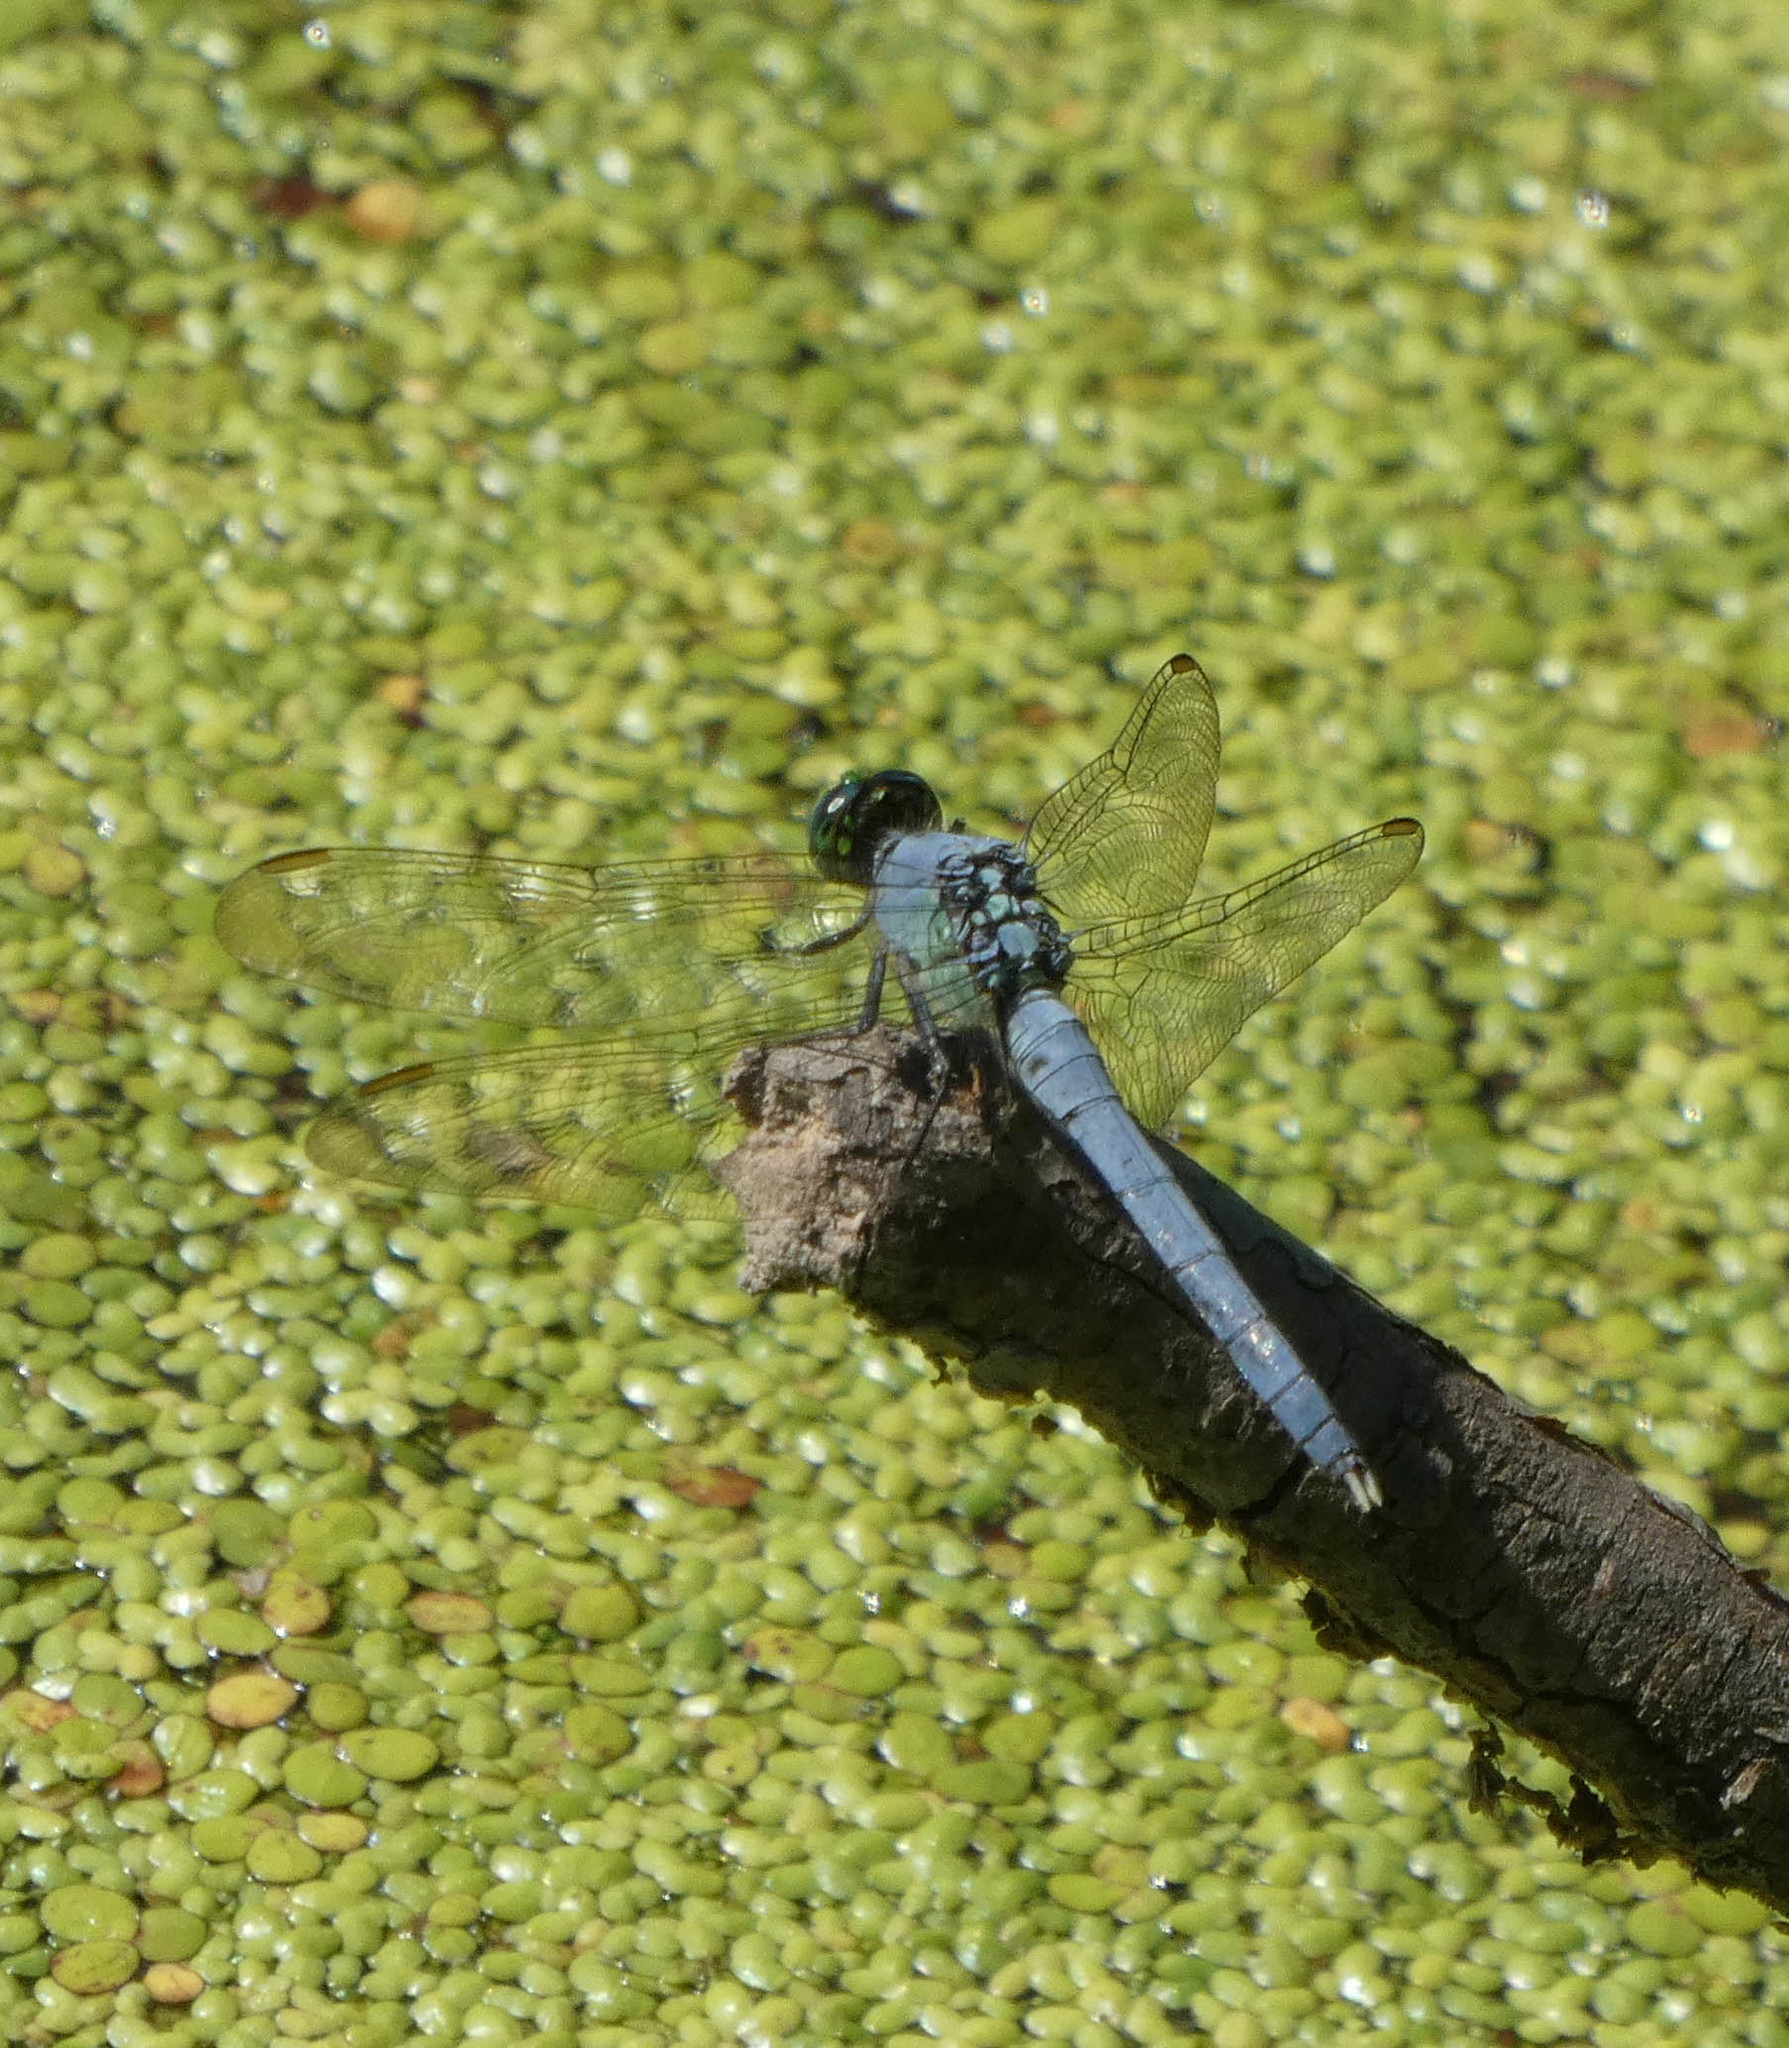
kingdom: Animalia
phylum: Arthropoda
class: Insecta
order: Odonata
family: Libellulidae
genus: Erythemis
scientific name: Erythemis simplicicollis
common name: Eastern pondhawk
